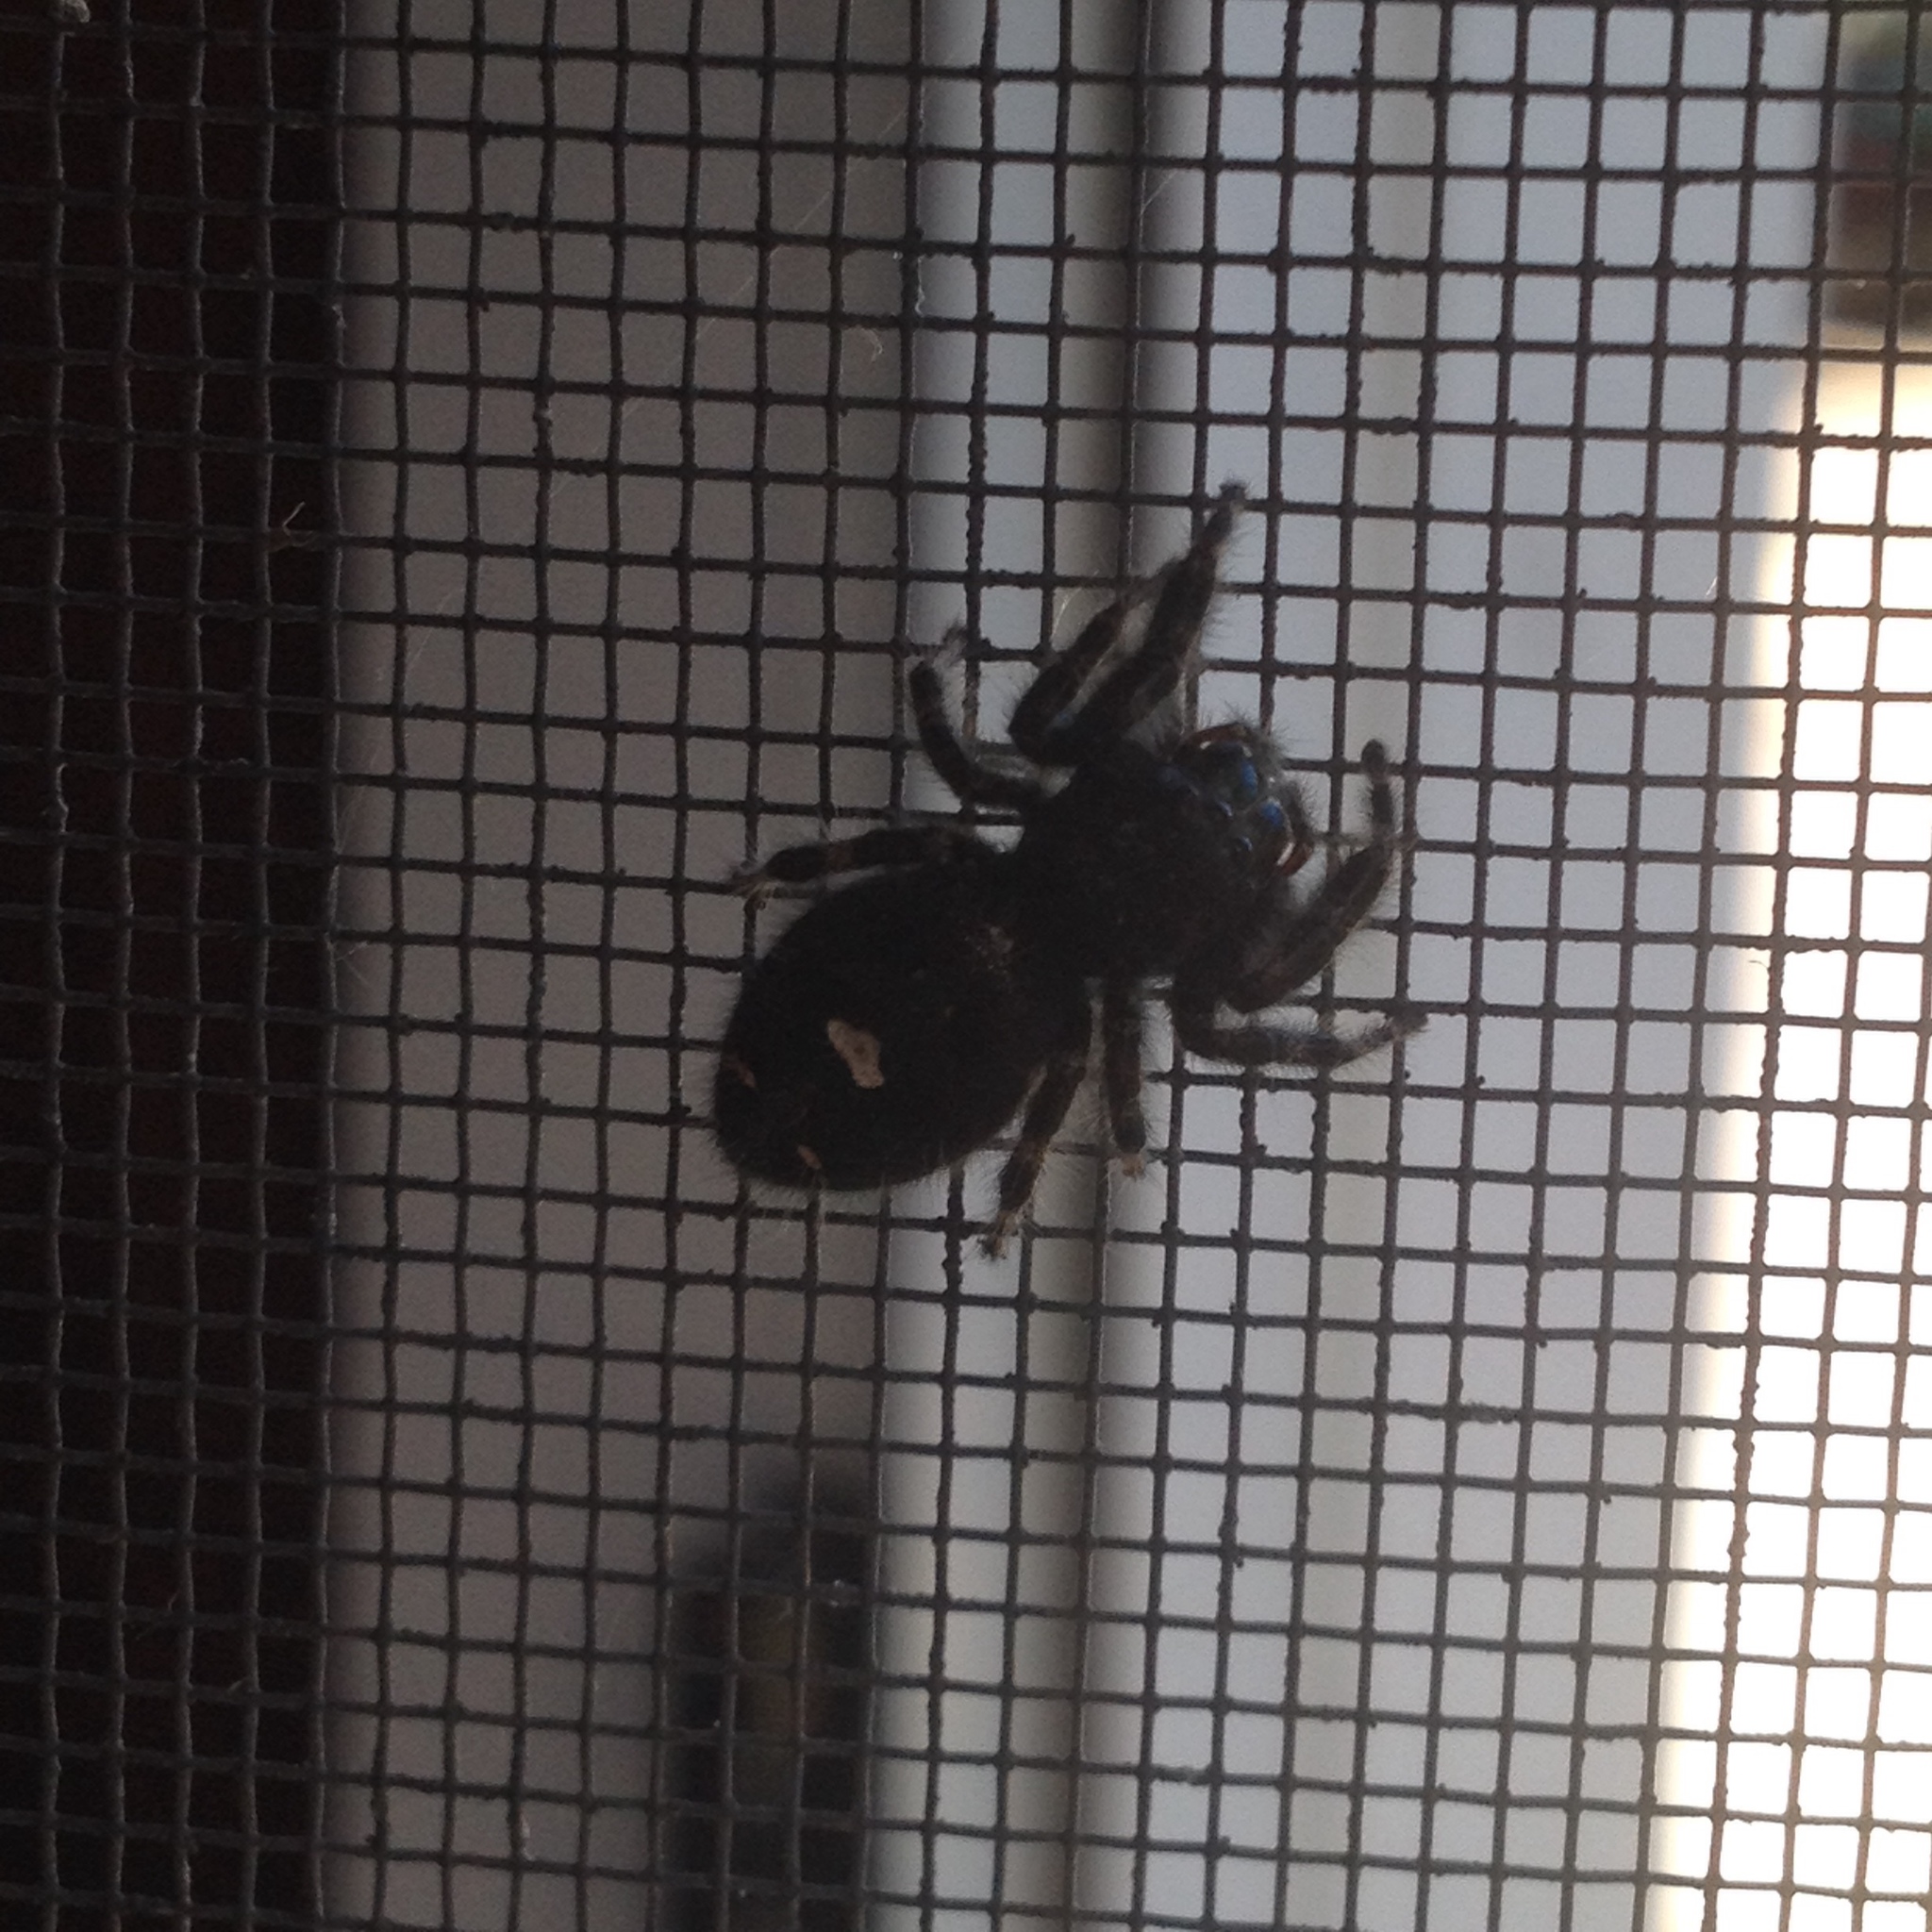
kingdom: Animalia
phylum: Arthropoda
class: Arachnida
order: Araneae
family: Salticidae
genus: Phidippus
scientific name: Phidippus audax
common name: Bold jumper
